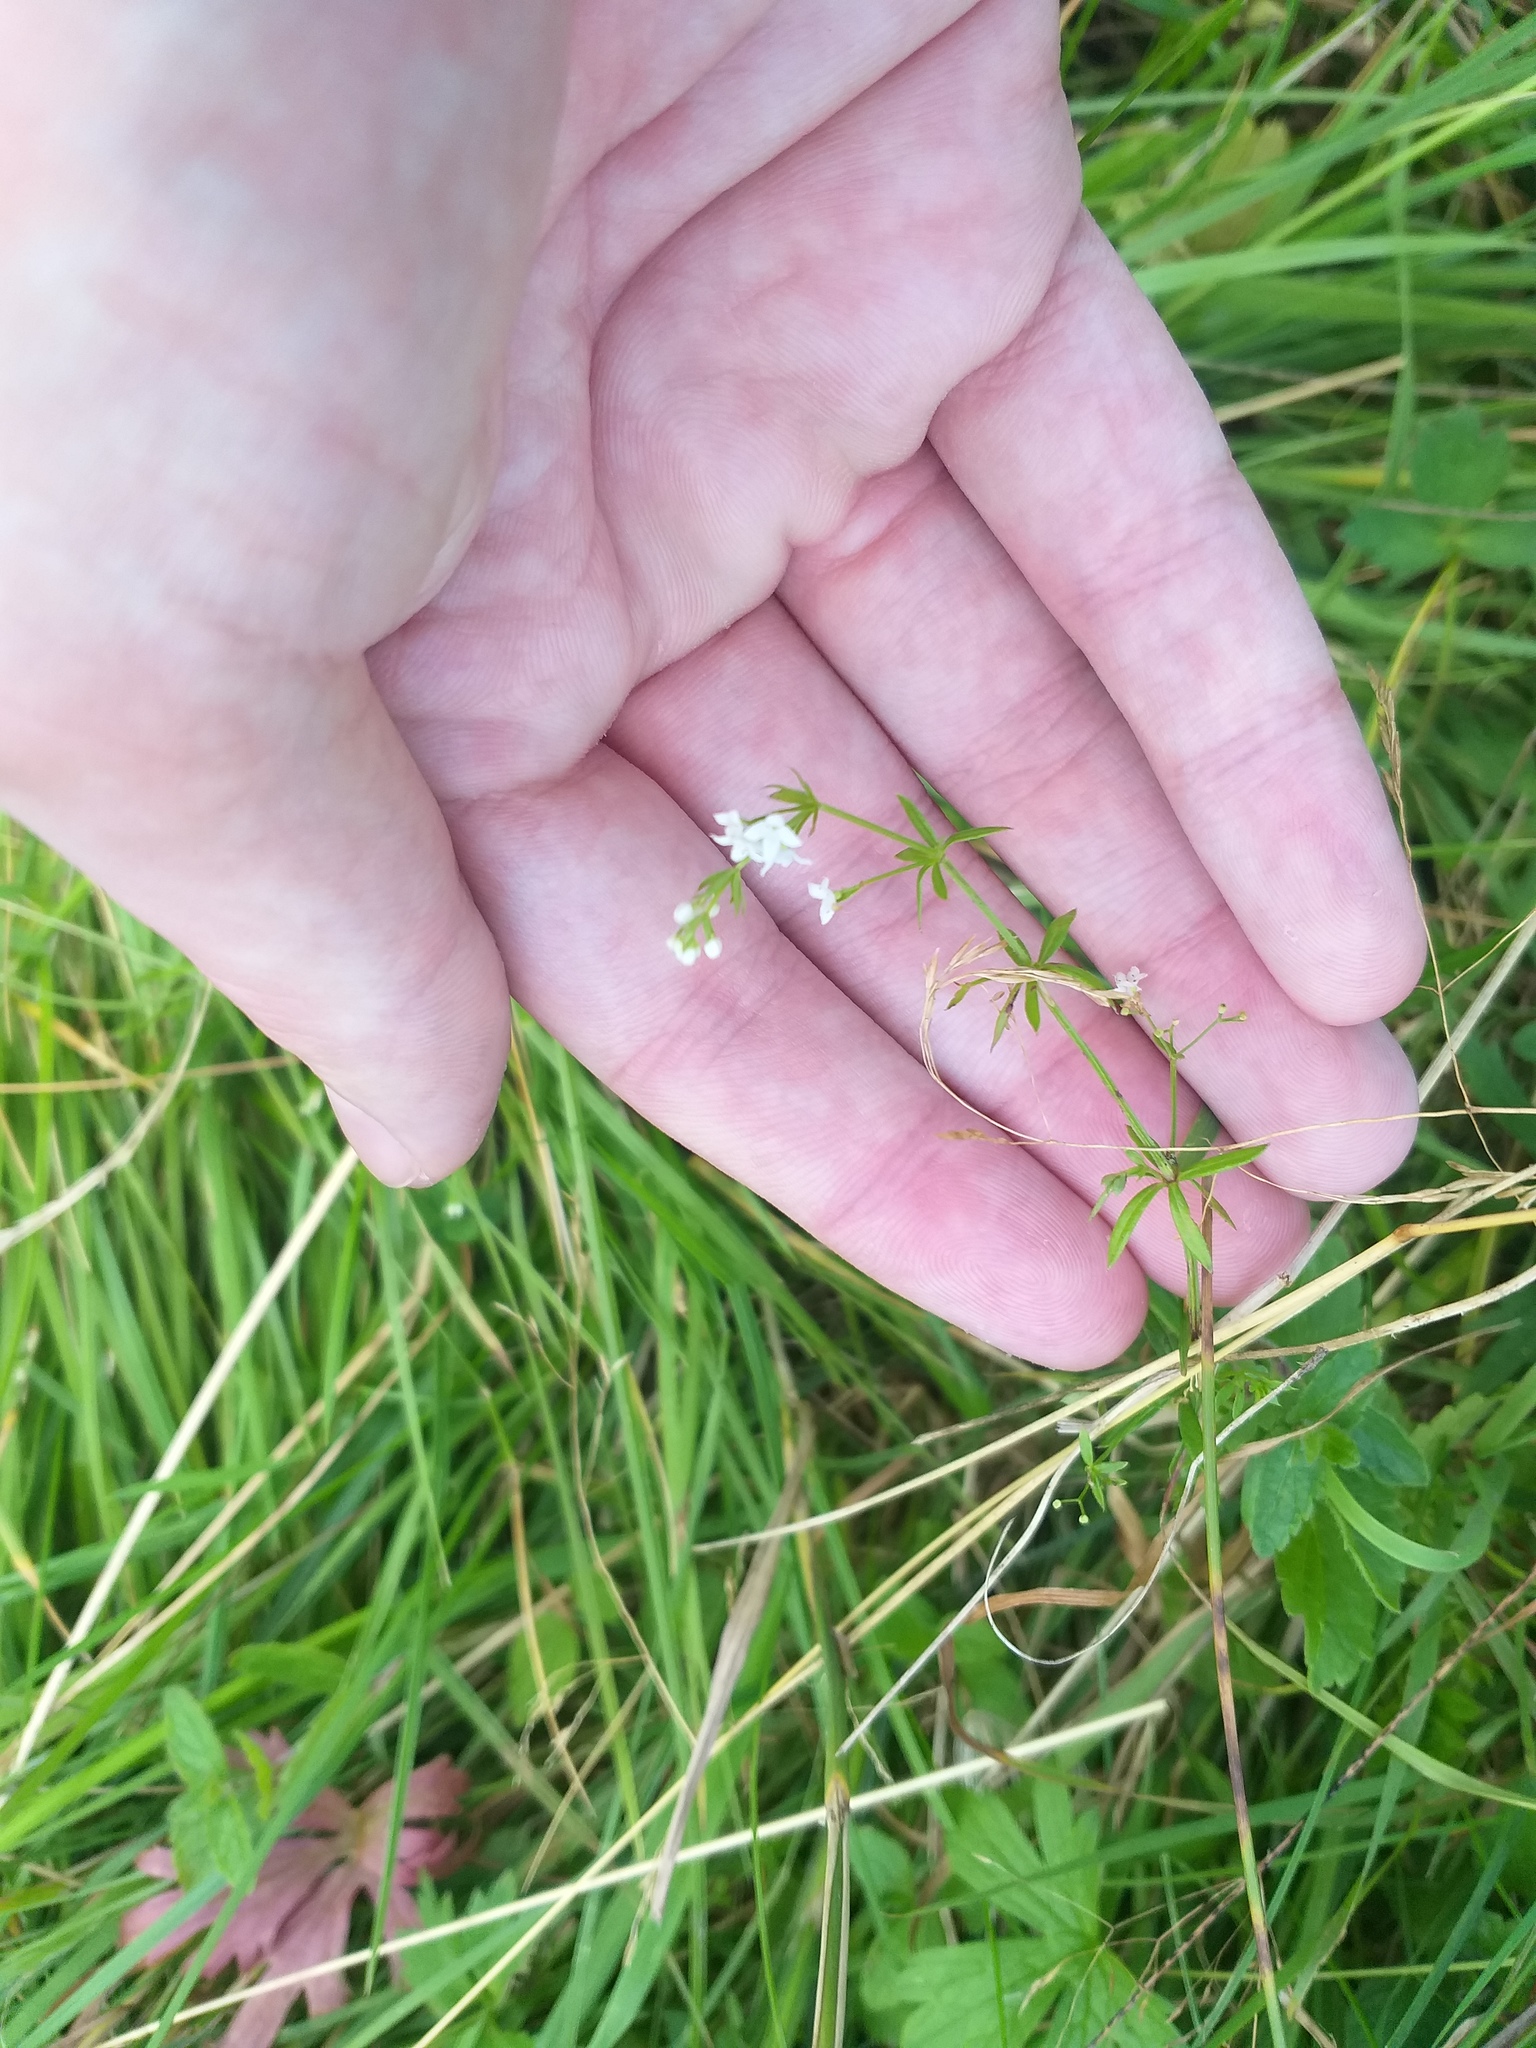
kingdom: Plantae
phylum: Tracheophyta
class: Magnoliopsida
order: Gentianales
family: Rubiaceae
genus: Galium
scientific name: Galium uliginosum
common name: Fen bedstraw
